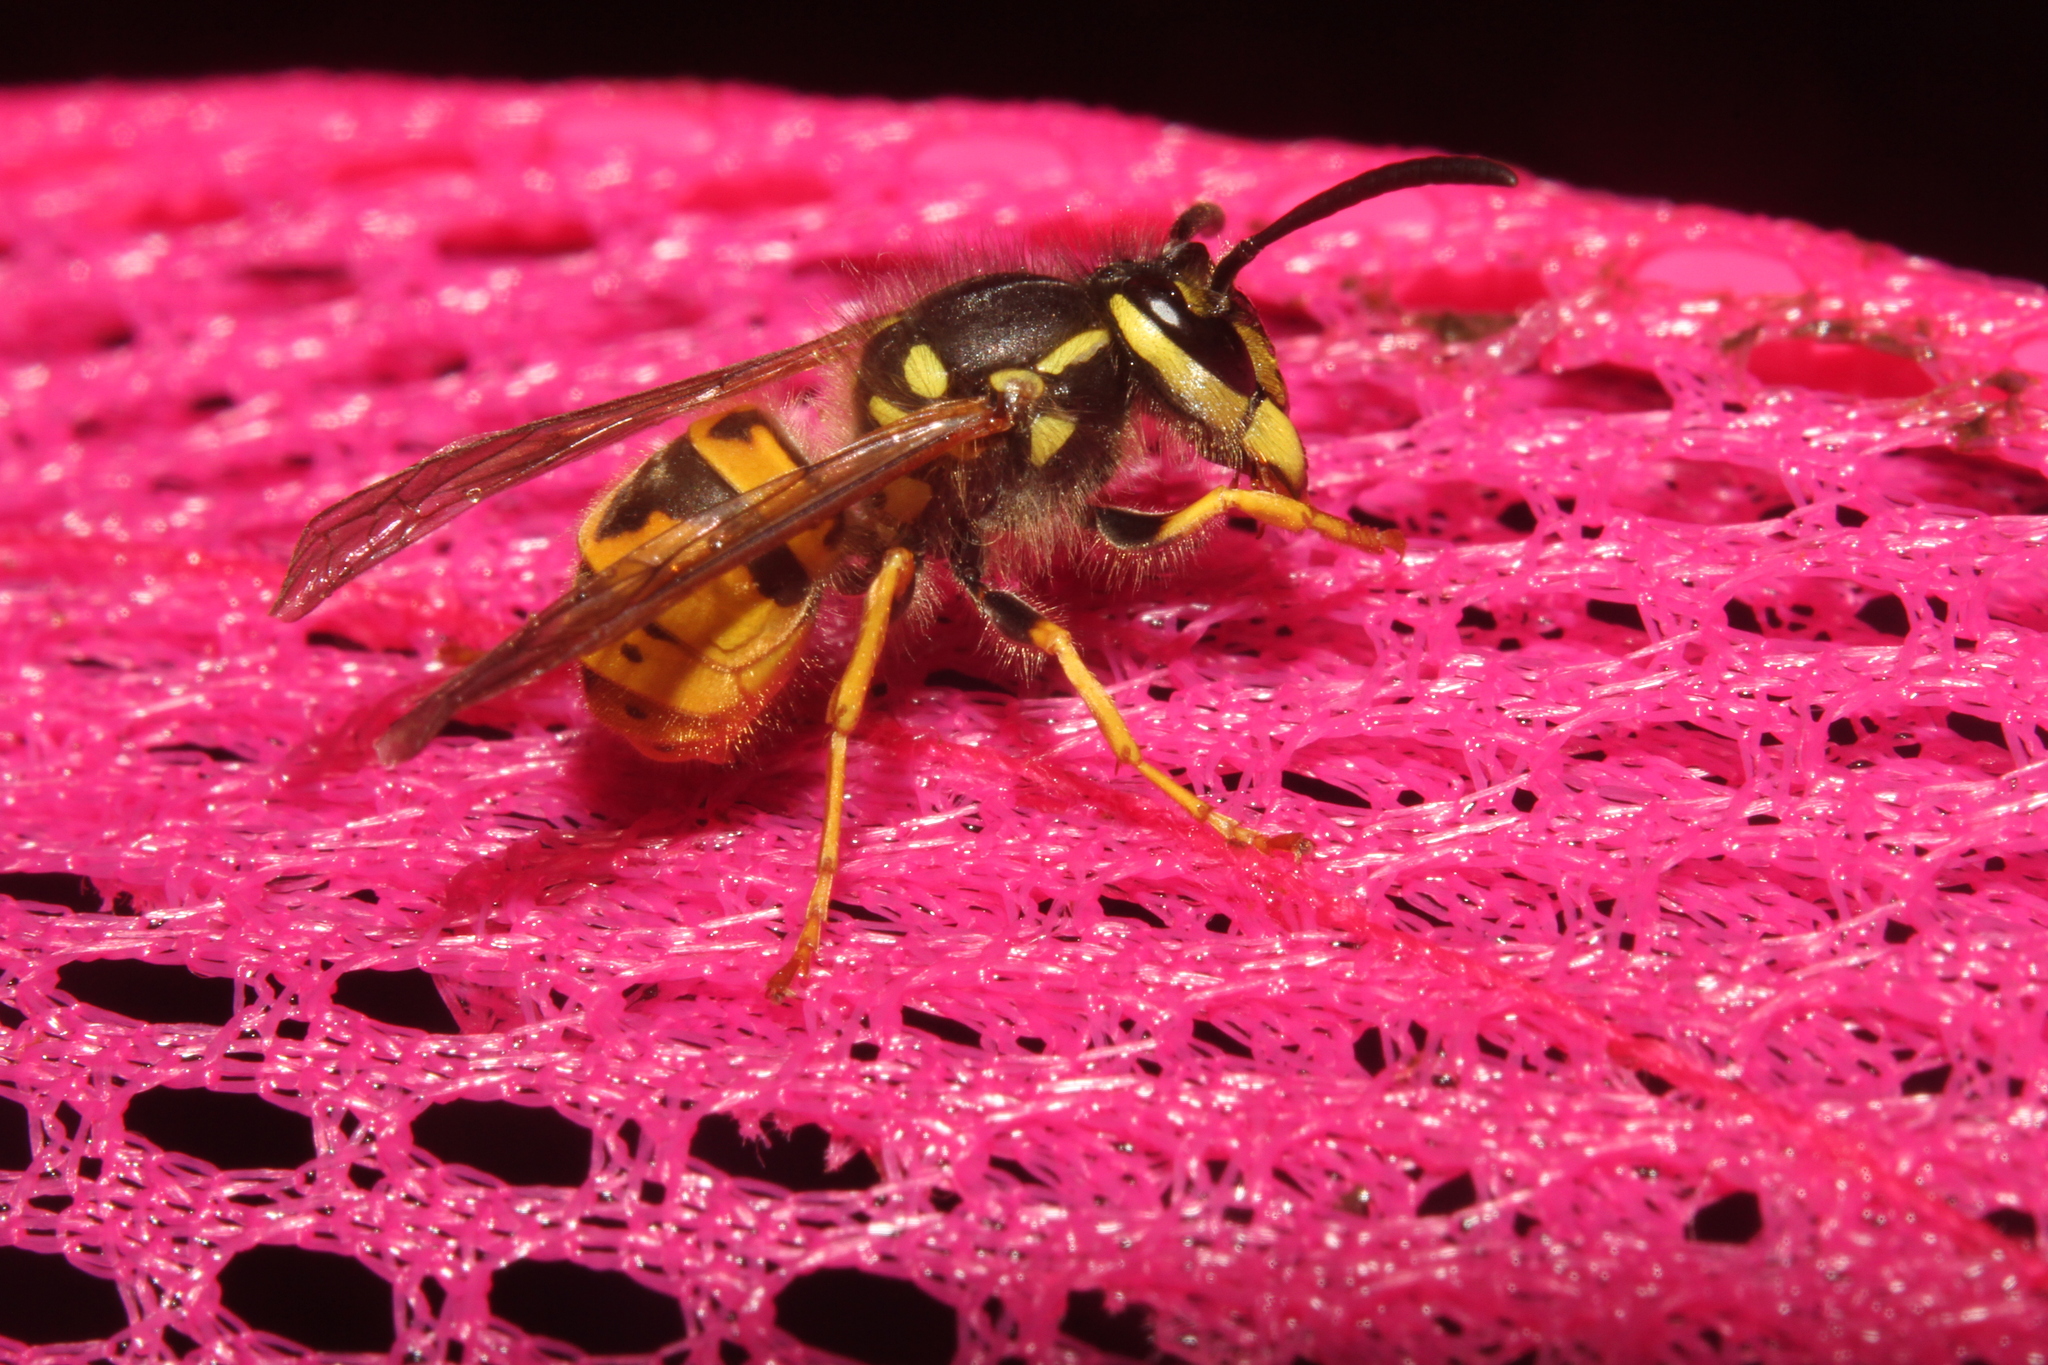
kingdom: Animalia
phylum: Arthropoda
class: Insecta
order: Hymenoptera
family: Vespidae
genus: Vespula
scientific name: Vespula germanica
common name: German wasp
